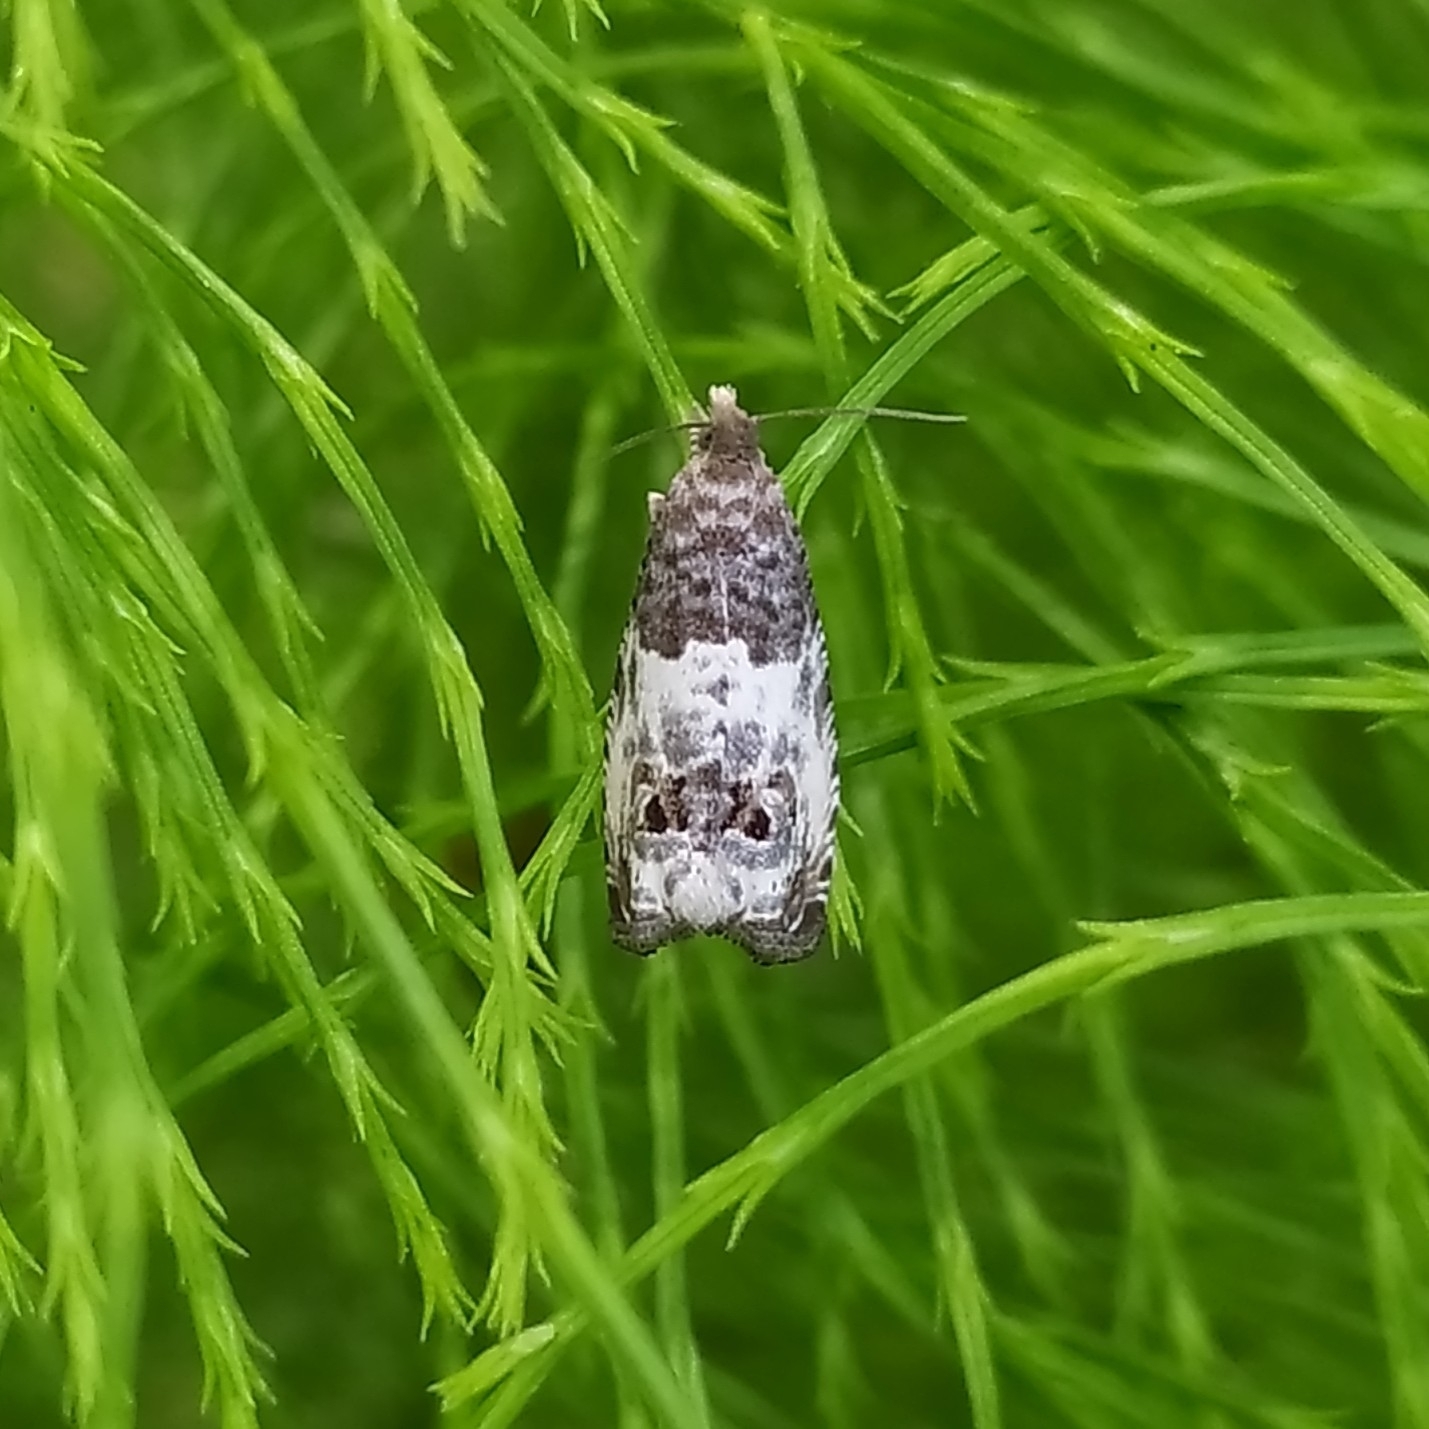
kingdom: Animalia
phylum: Arthropoda
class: Insecta
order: Lepidoptera
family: Tortricidae
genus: Notocelia
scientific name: Notocelia rosaecolana
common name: Common rose bell
